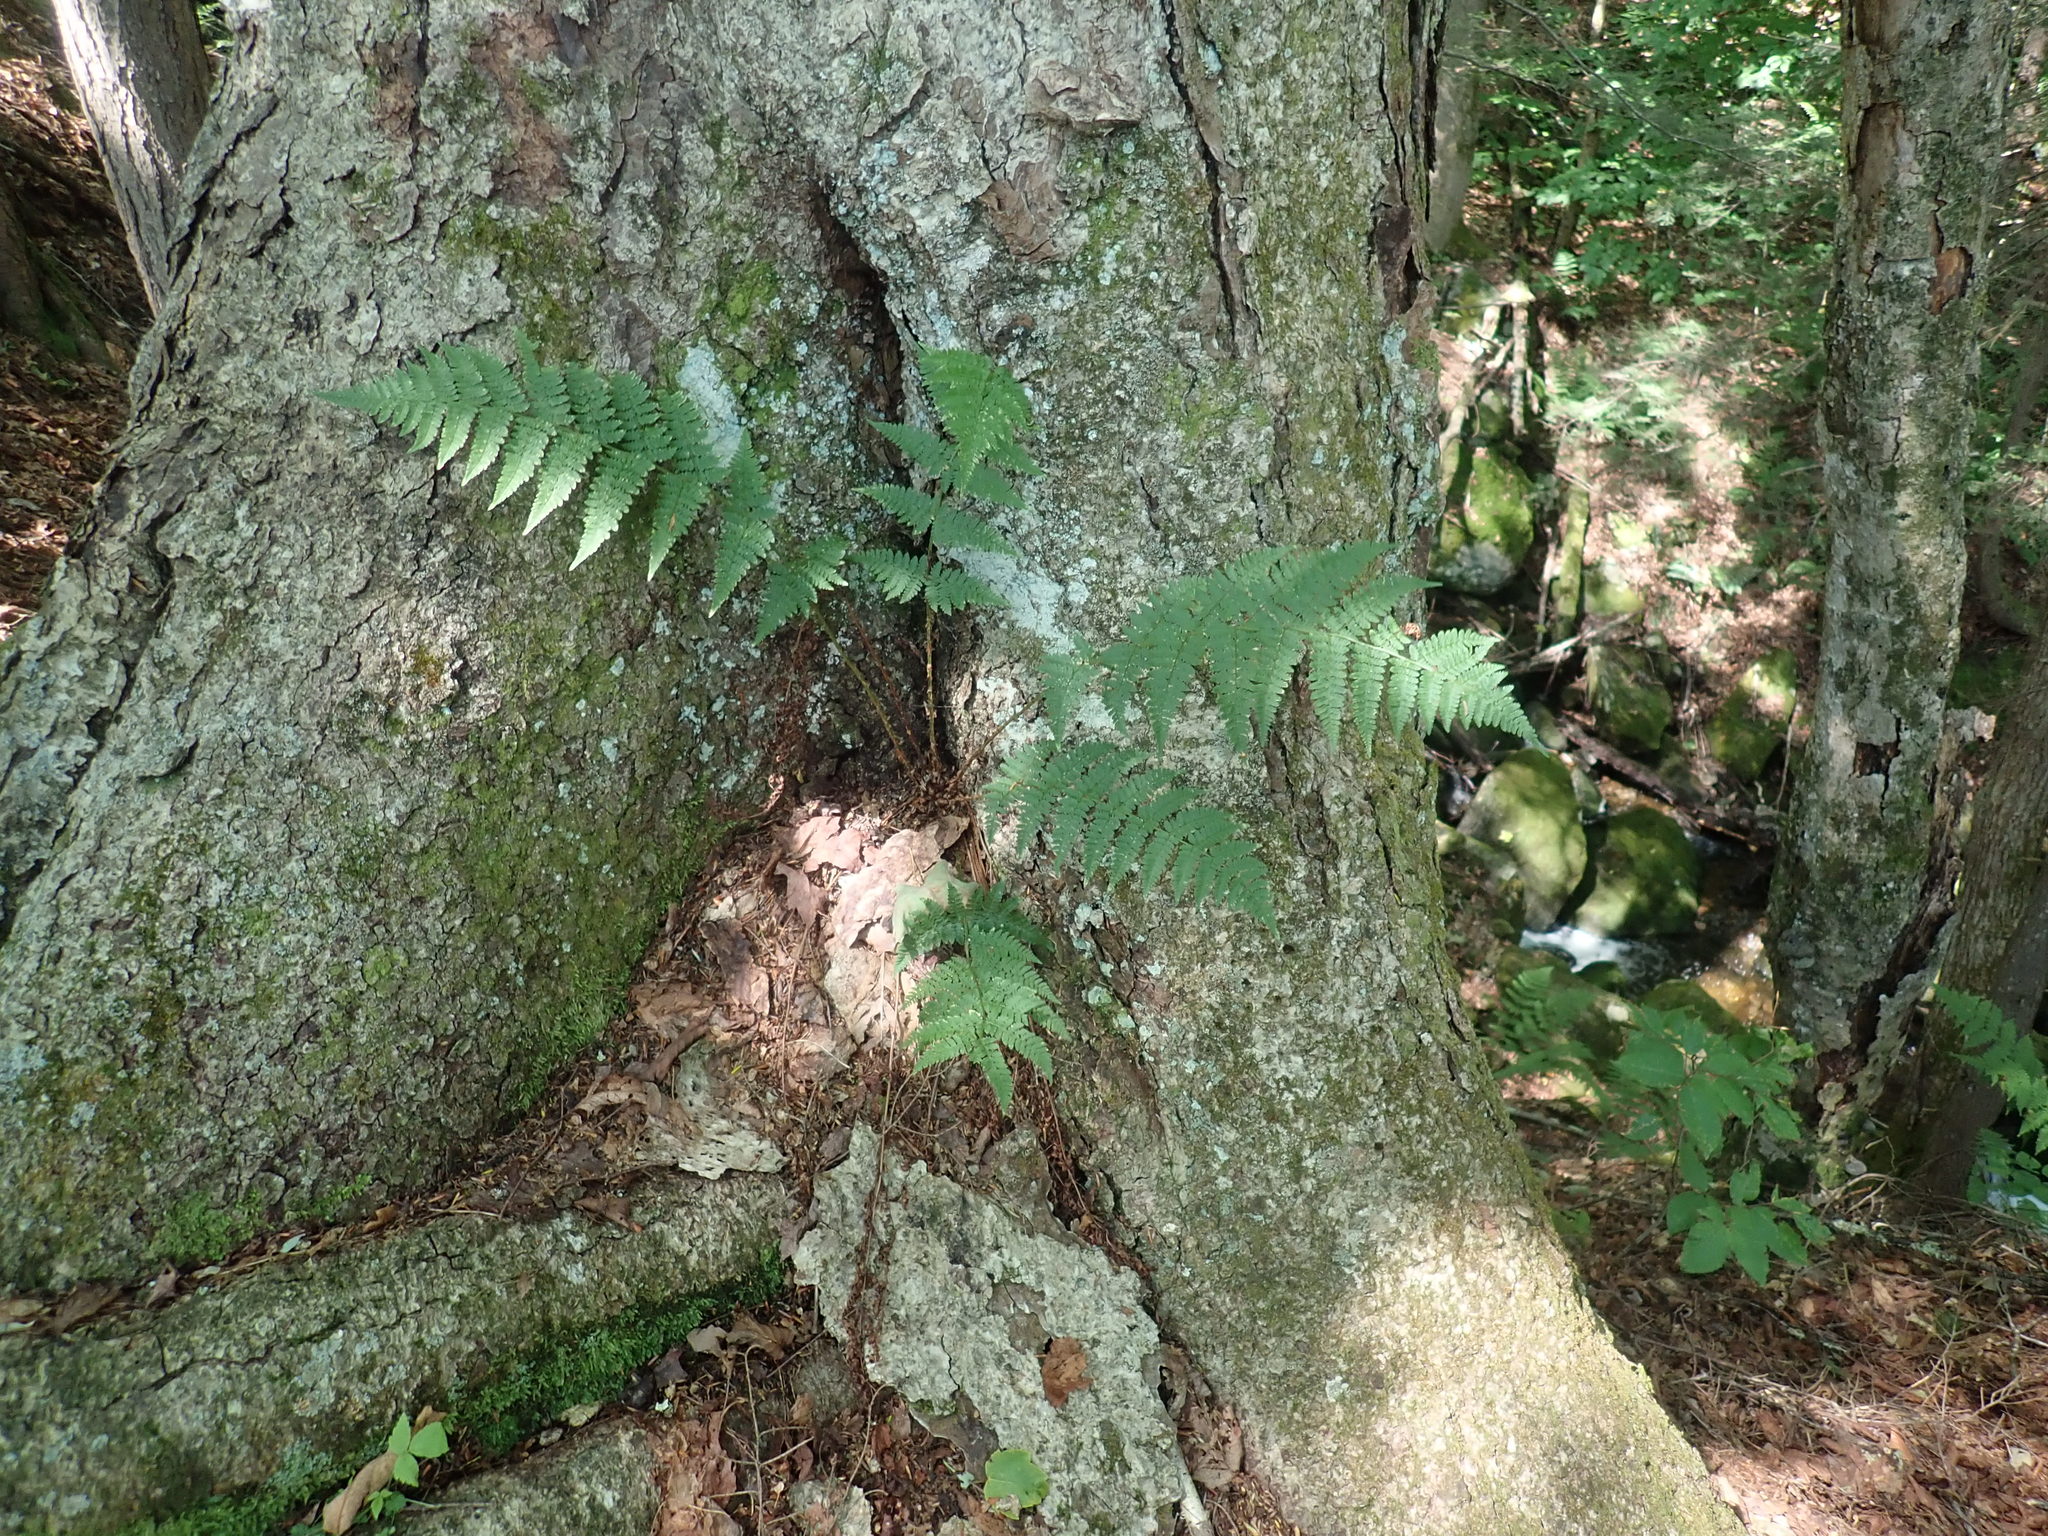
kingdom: Plantae
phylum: Tracheophyta
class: Polypodiopsida
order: Polypodiales
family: Dryopteridaceae
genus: Dryopteris
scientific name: Dryopteris intermedia
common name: Evergreen wood fern
